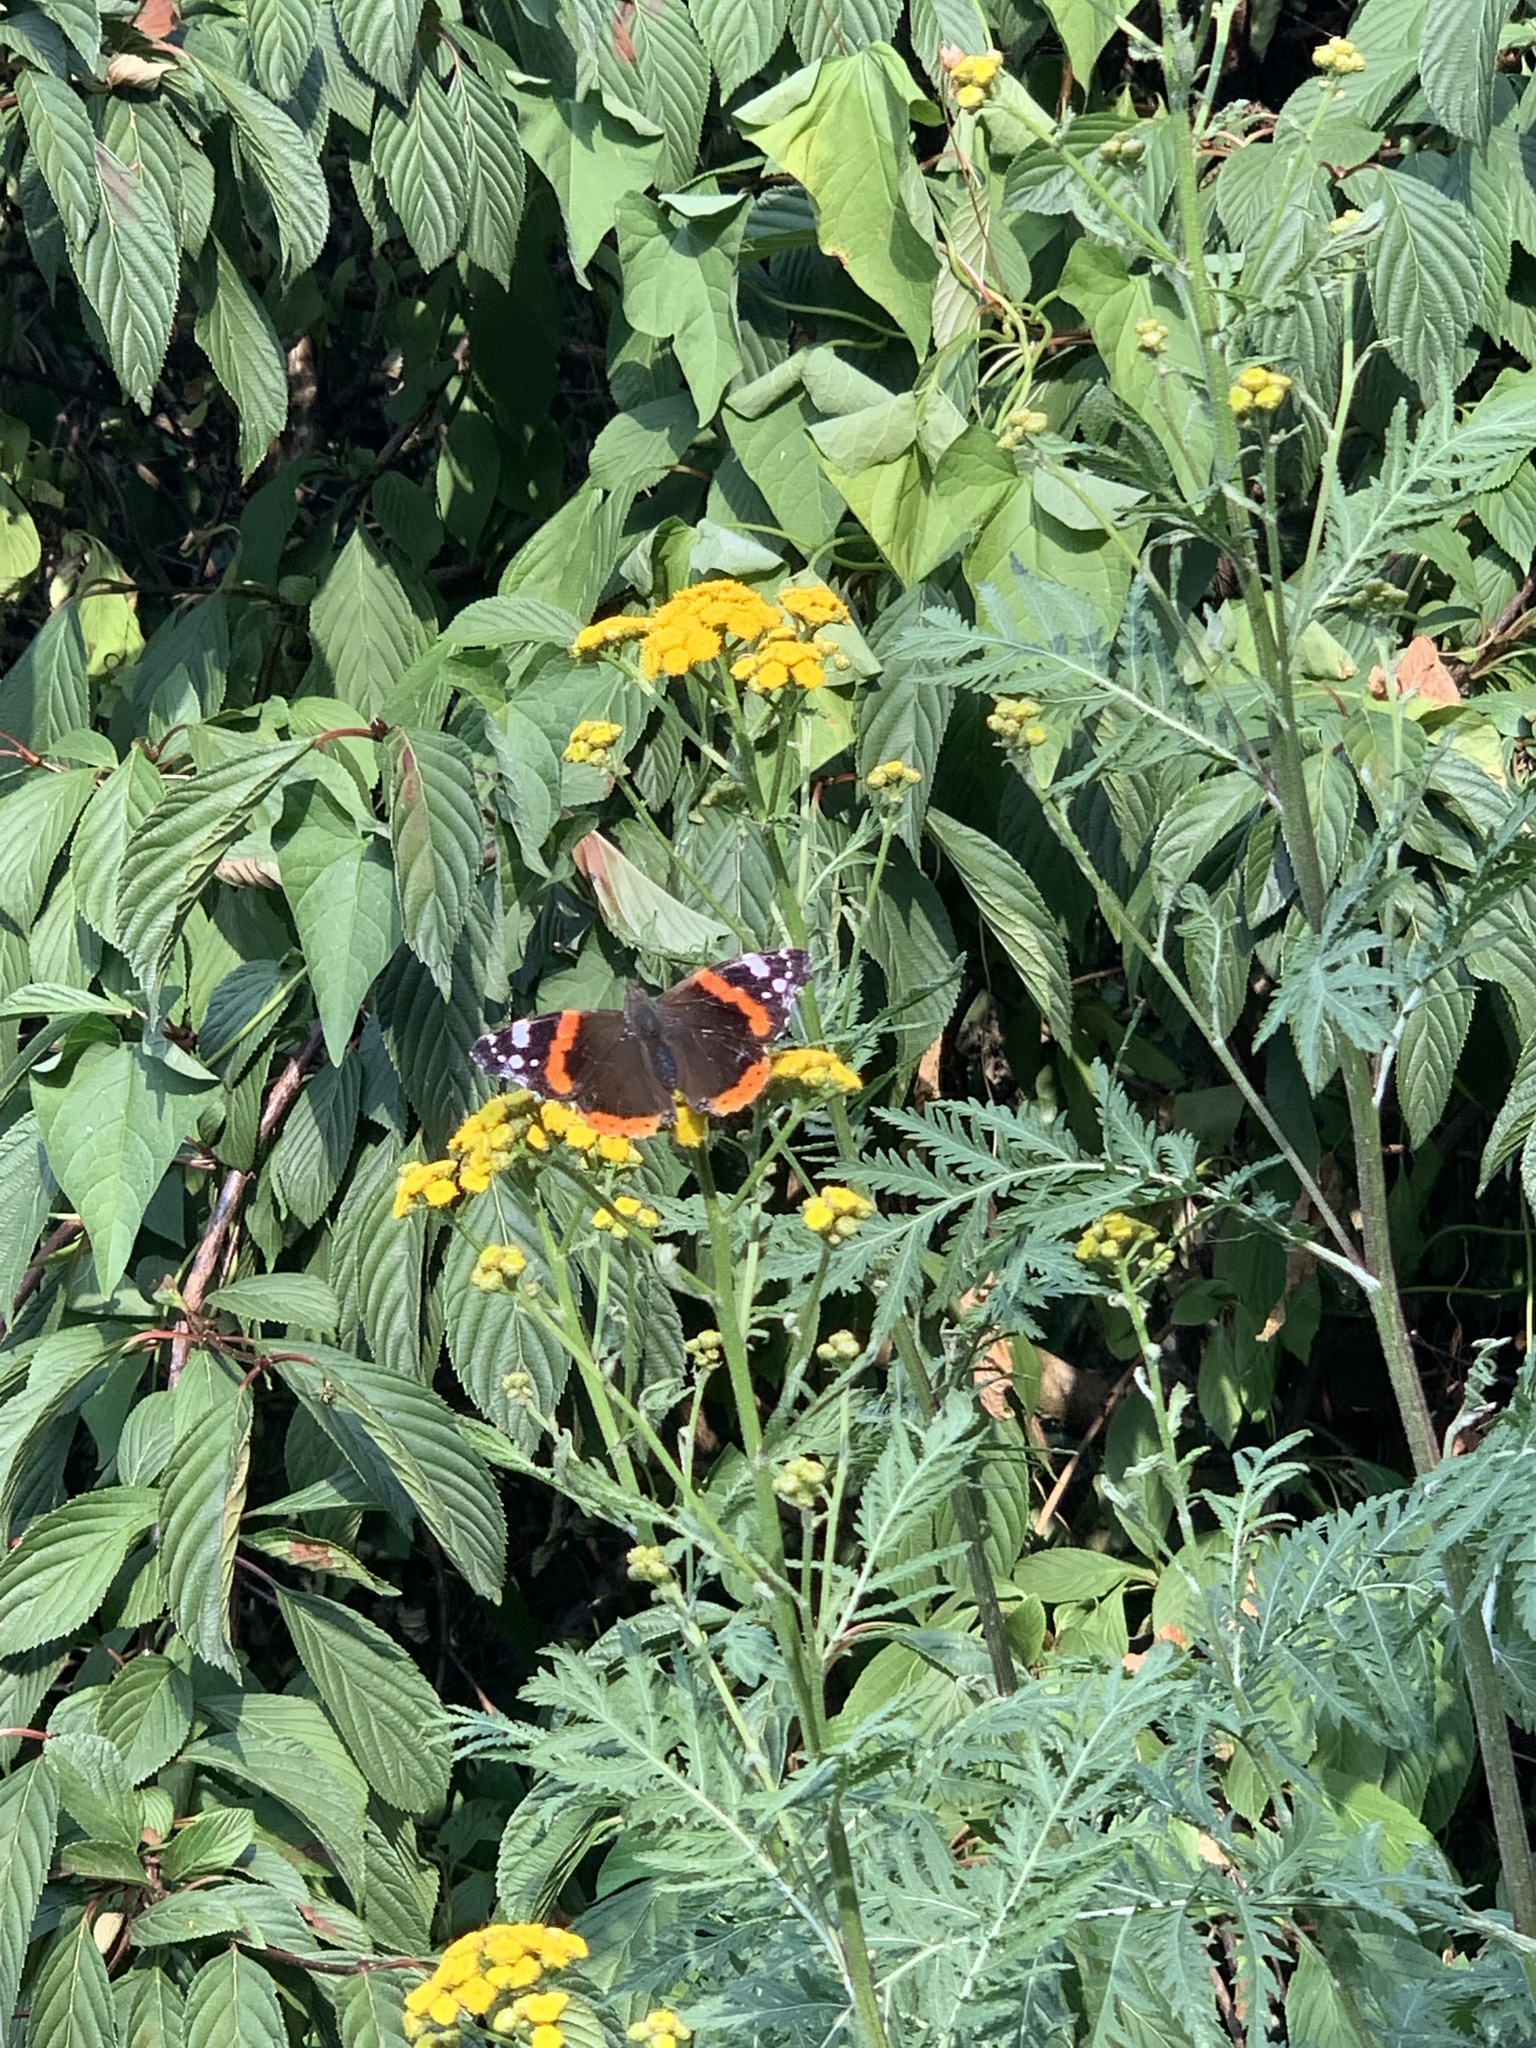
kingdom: Animalia
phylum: Arthropoda
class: Insecta
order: Lepidoptera
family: Nymphalidae
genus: Vanessa
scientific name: Vanessa atalanta
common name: Red admiral
